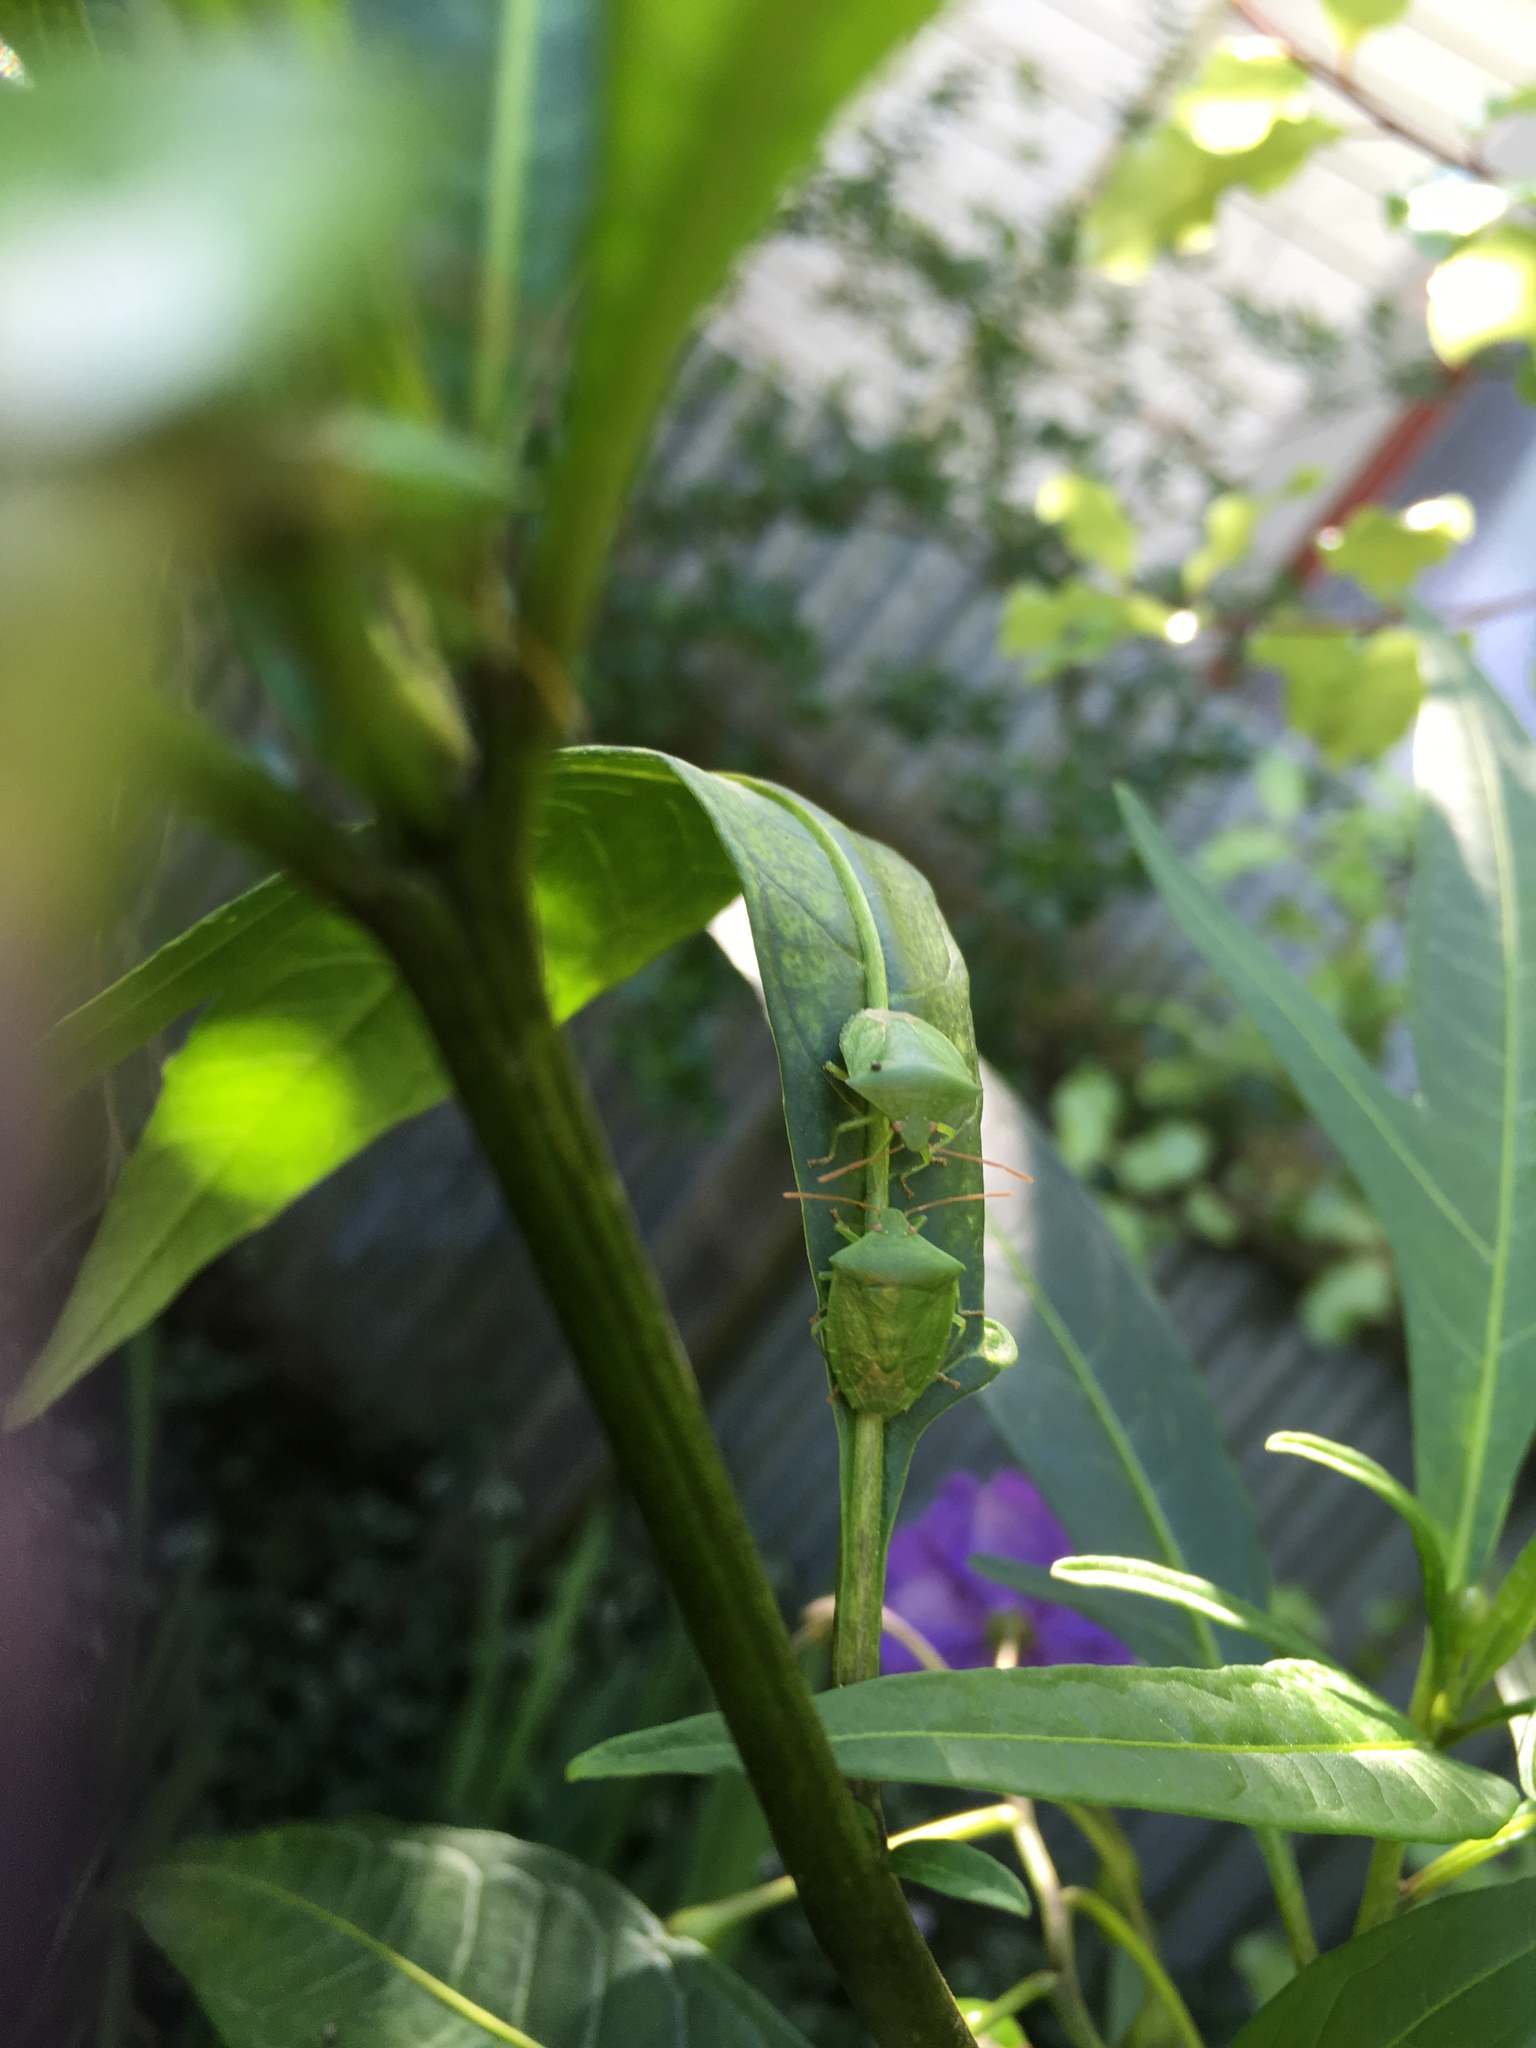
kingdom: Animalia
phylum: Arthropoda
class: Insecta
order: Hemiptera
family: Pentatomidae
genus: Cuspicona
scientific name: Cuspicona simplex
